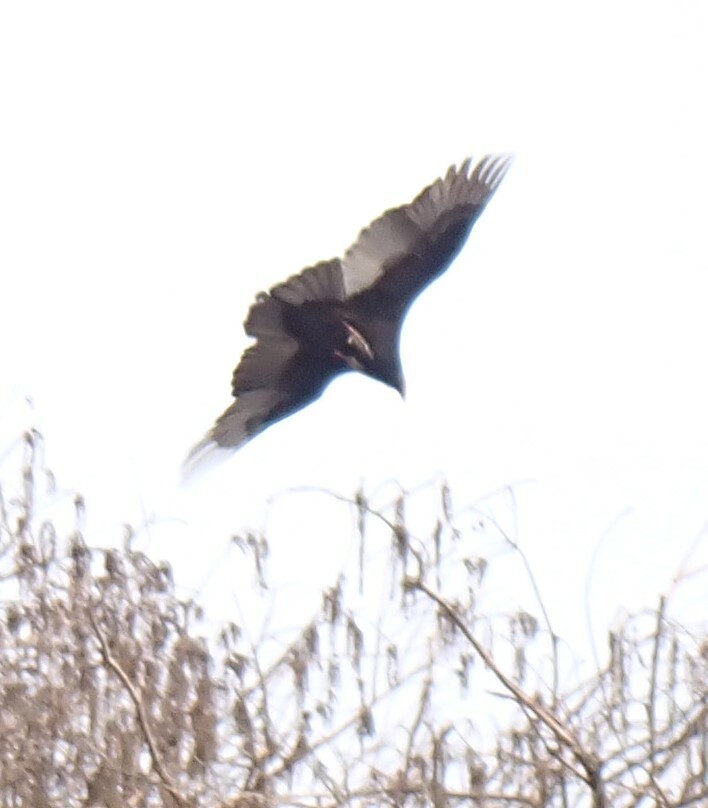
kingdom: Animalia
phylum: Chordata
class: Aves
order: Accipitriformes
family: Cathartidae
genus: Cathartes
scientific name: Cathartes aura
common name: Turkey vulture
